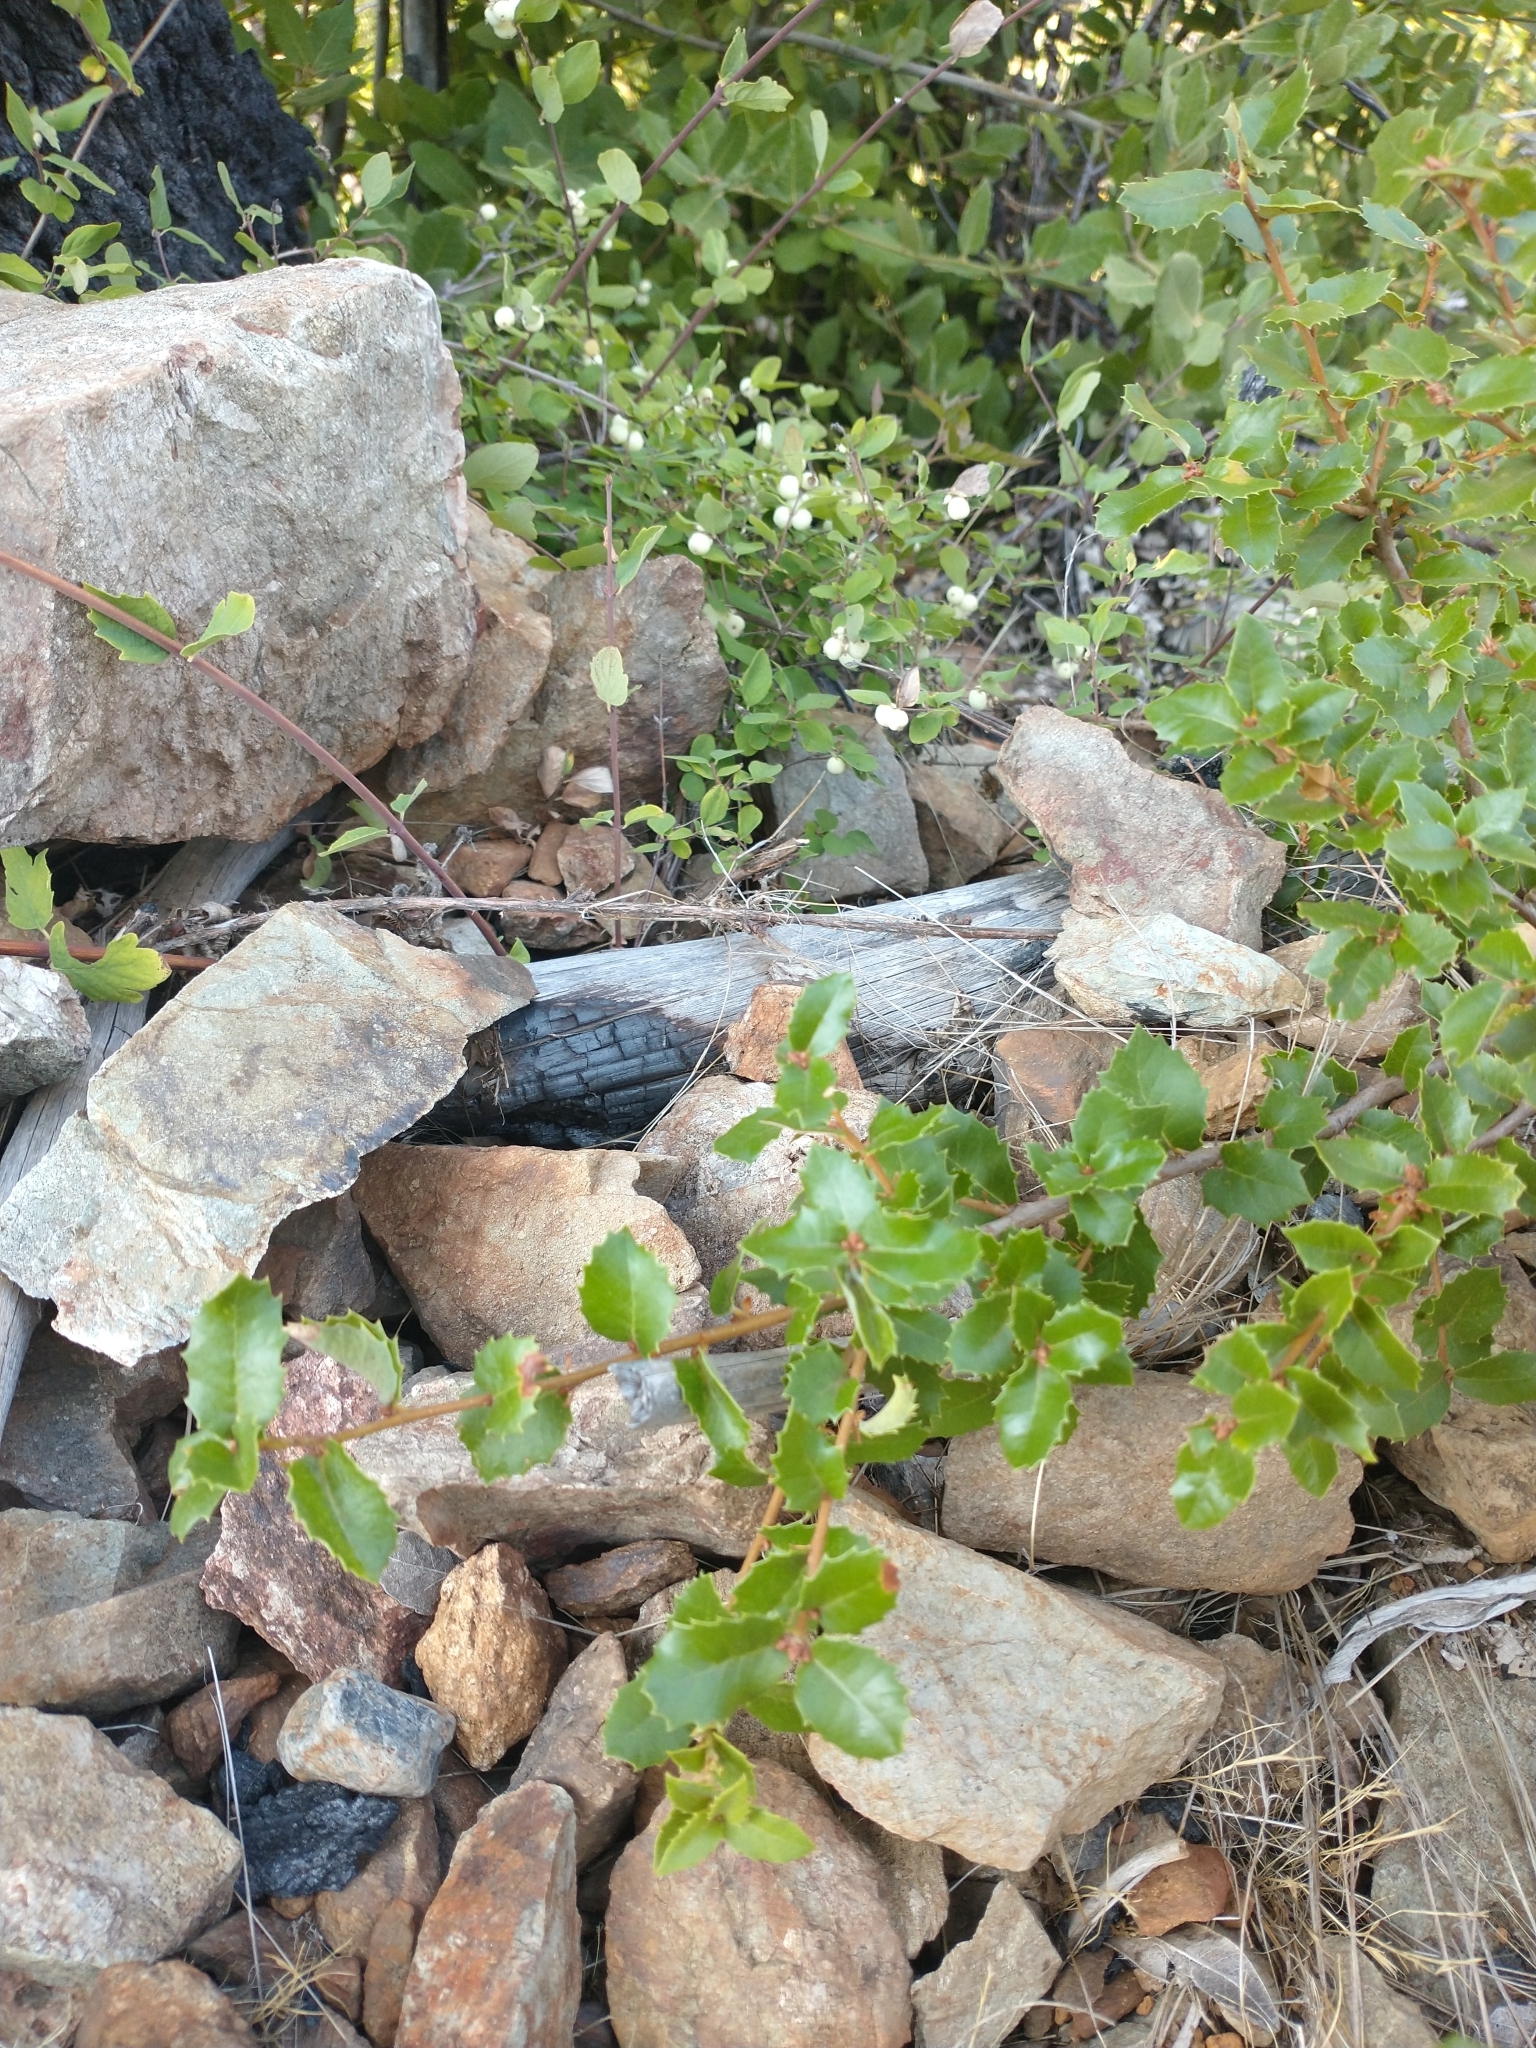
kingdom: Plantae
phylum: Tracheophyta
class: Magnoliopsida
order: Fagales
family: Fagaceae
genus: Quercus
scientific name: Quercus chrysolepis
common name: Canyon live oak
